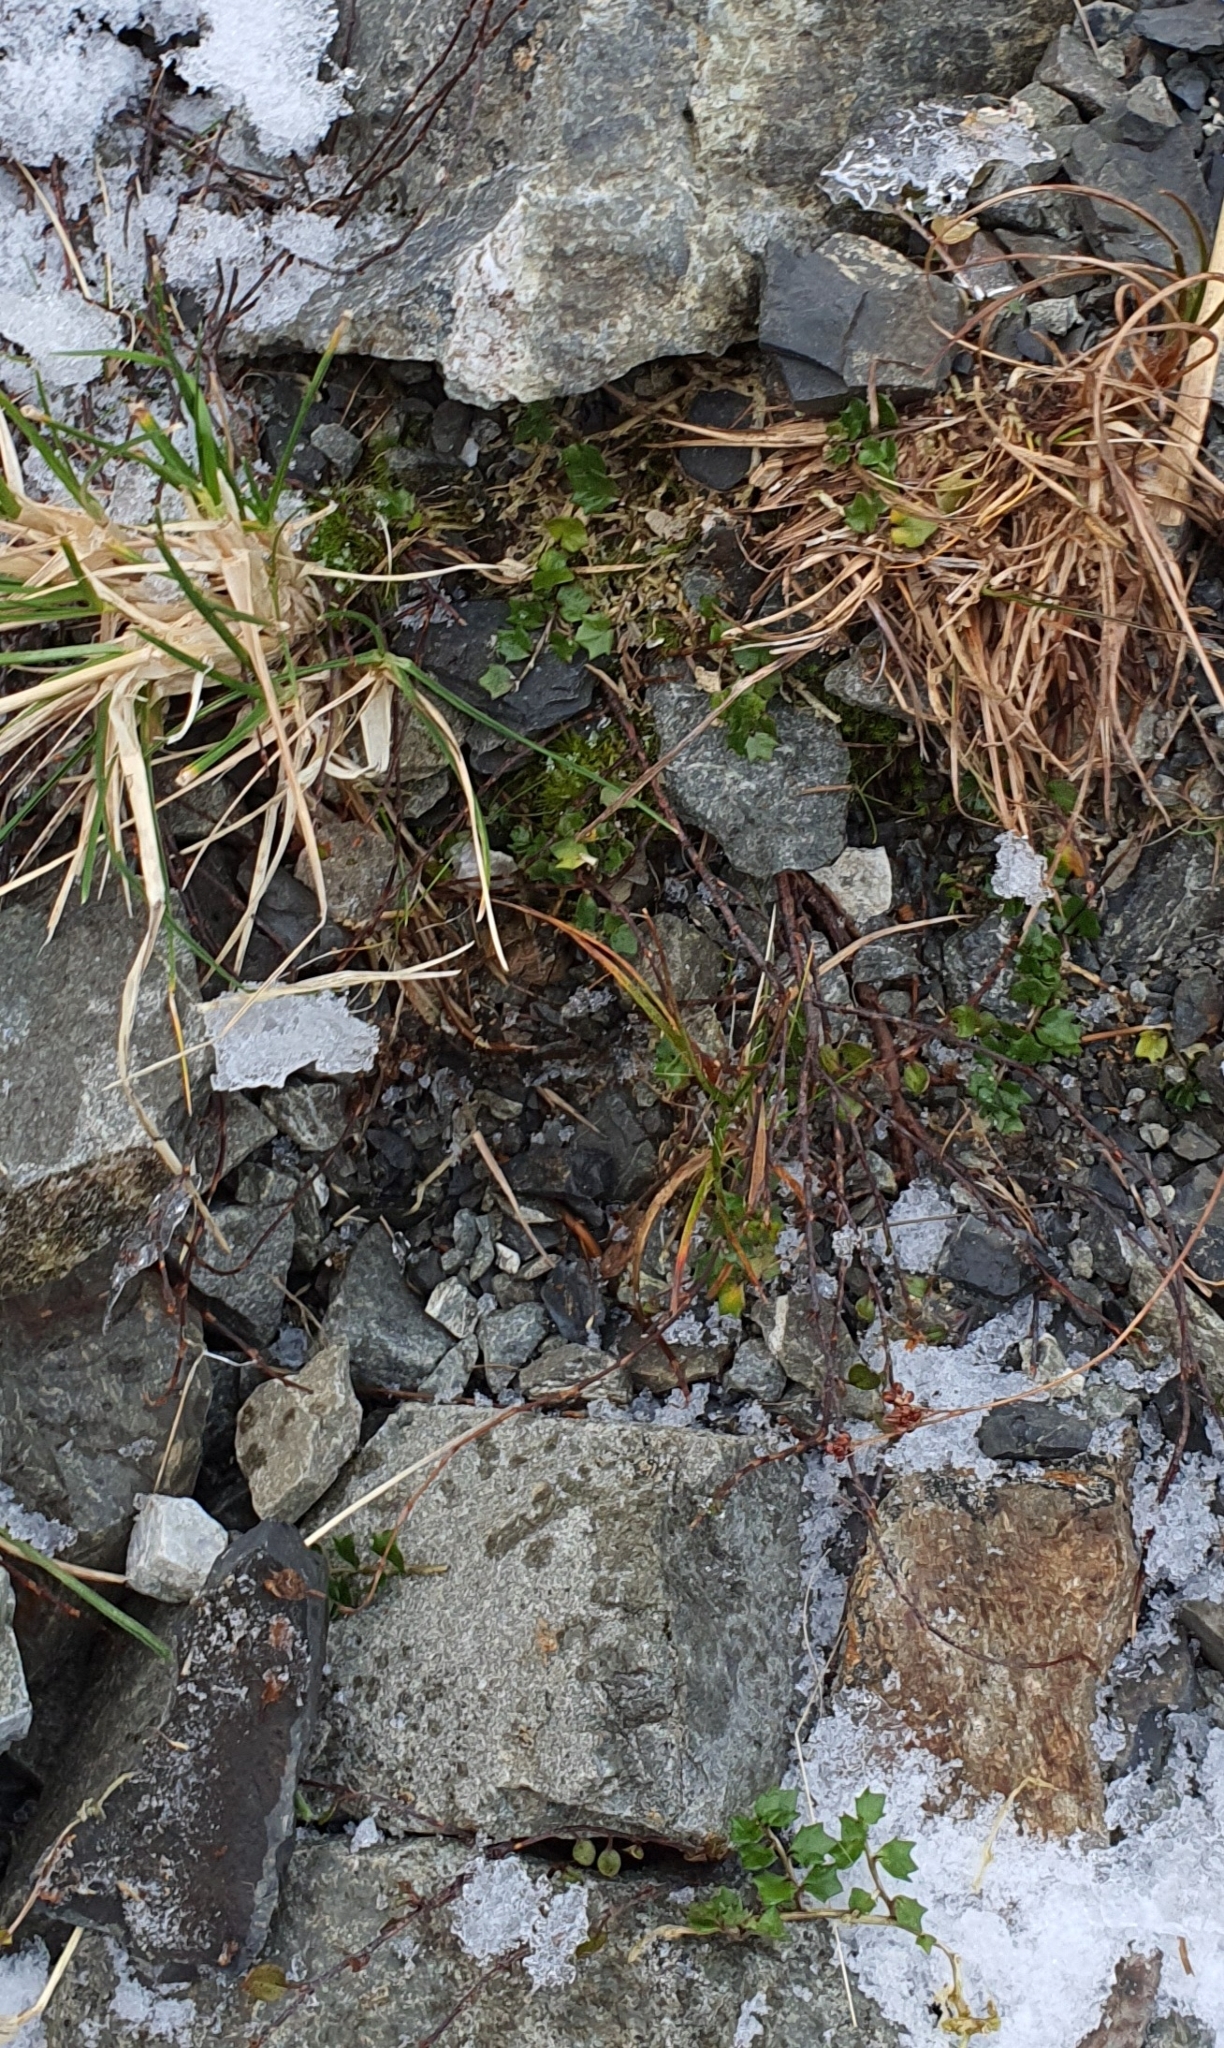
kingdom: Plantae
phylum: Tracheophyta
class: Magnoliopsida
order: Asterales
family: Campanulaceae
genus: Lobelia
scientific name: Lobelia macrodon
